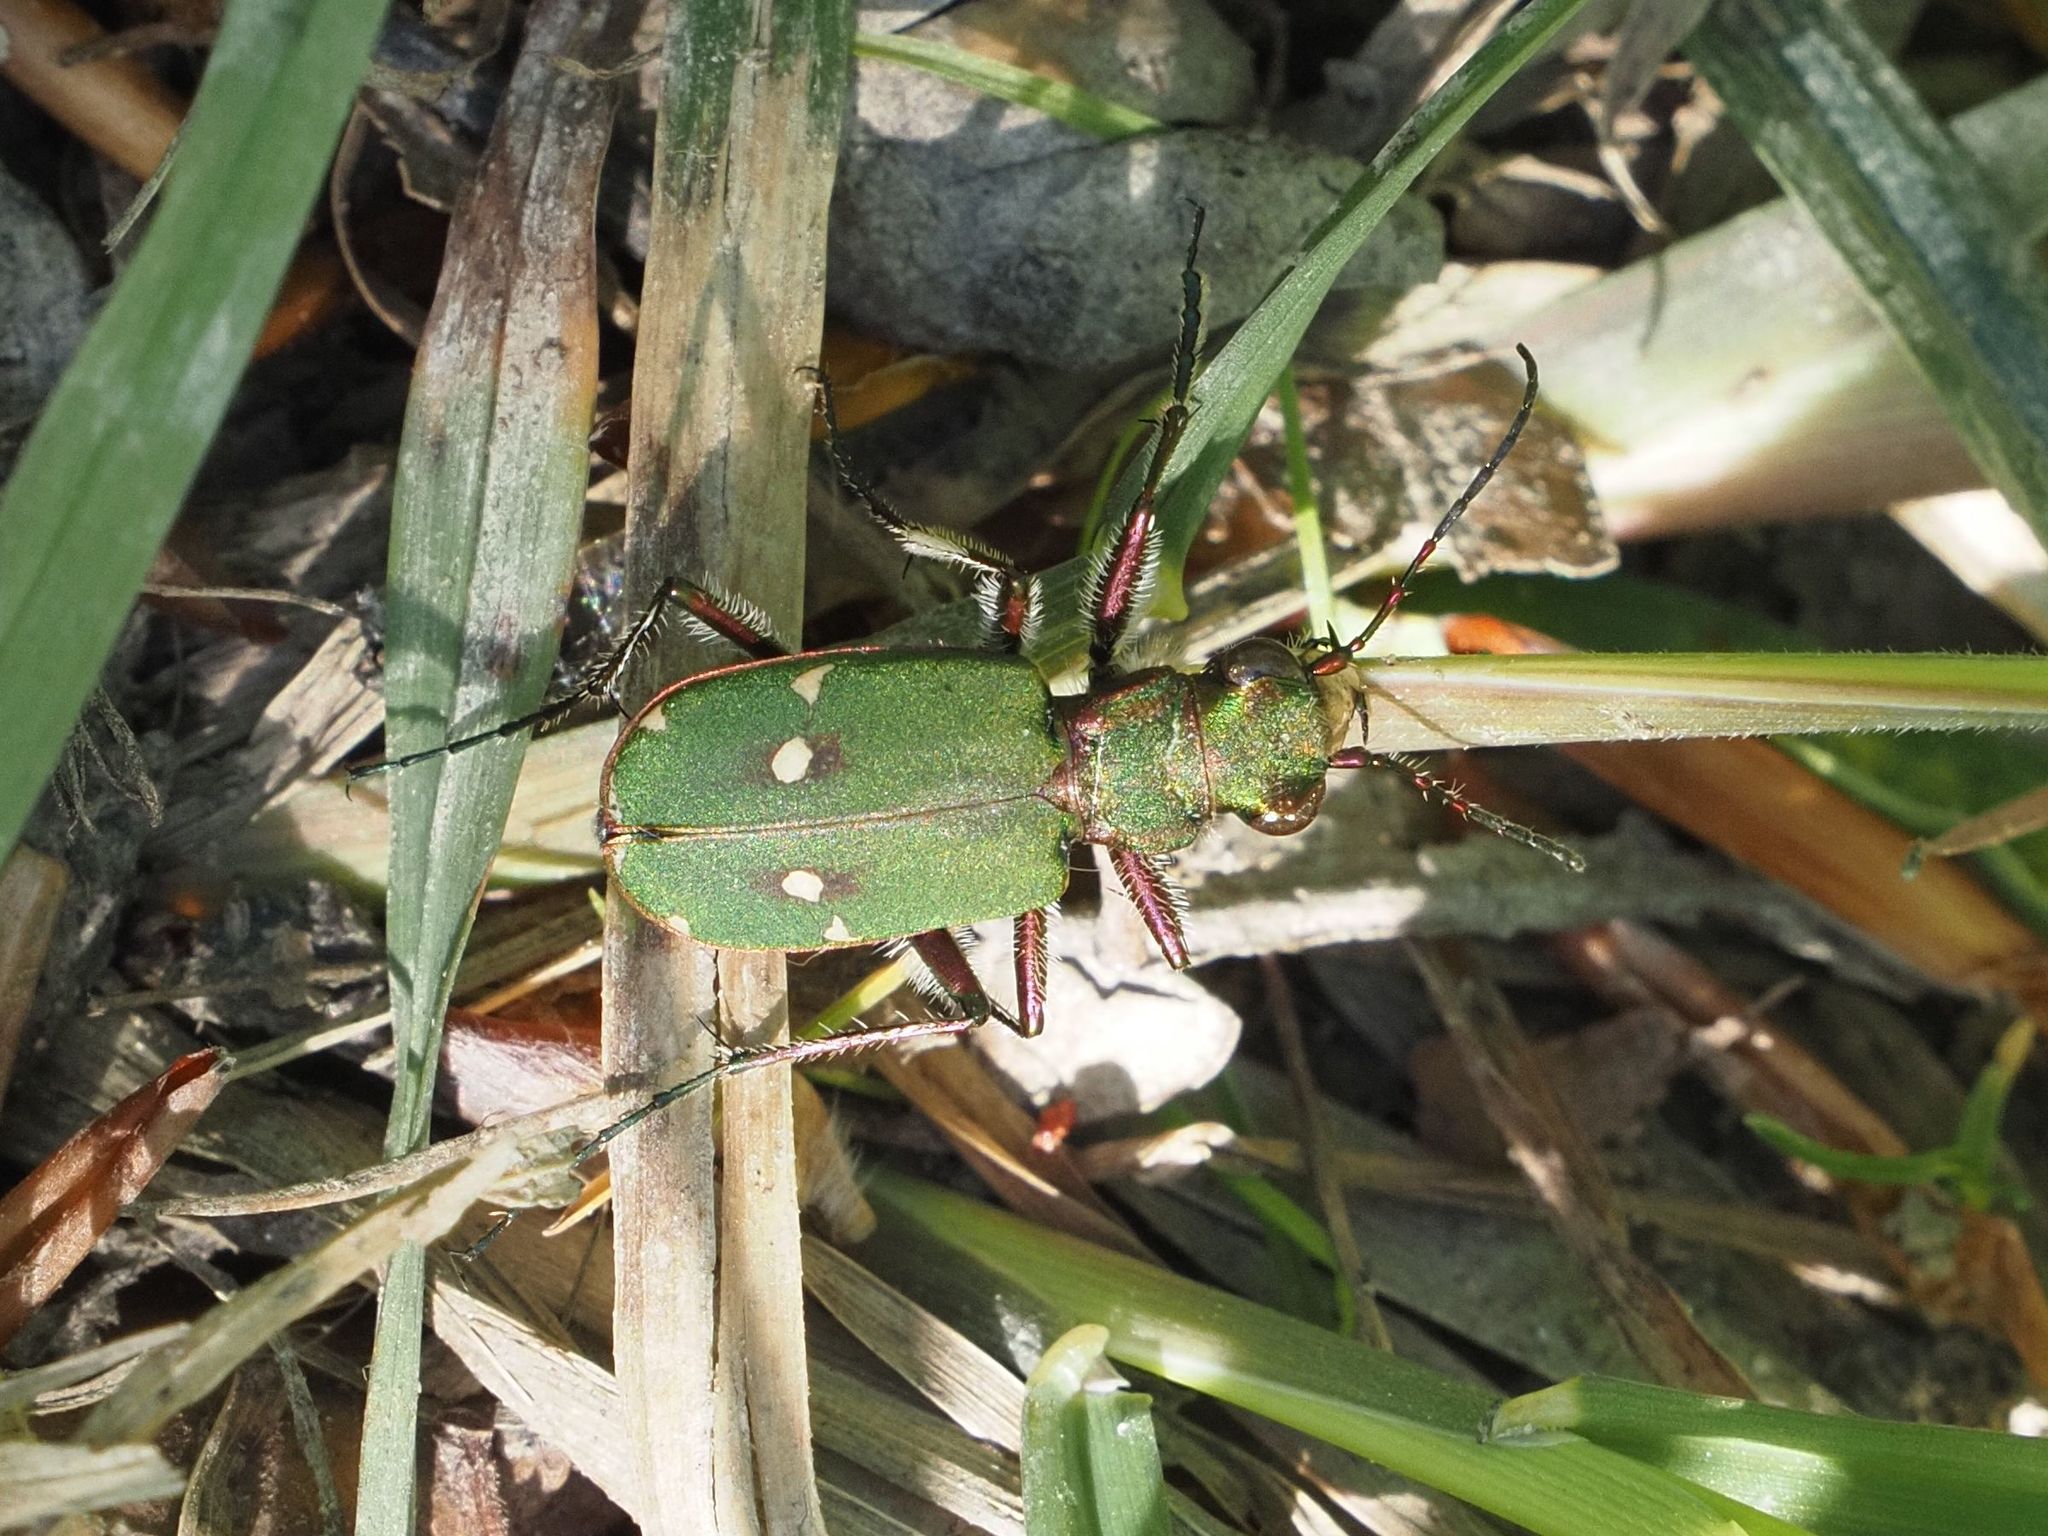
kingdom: Animalia
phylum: Arthropoda
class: Insecta
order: Coleoptera
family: Carabidae
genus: Cicindela
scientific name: Cicindela campestris
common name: Common tiger beetle
